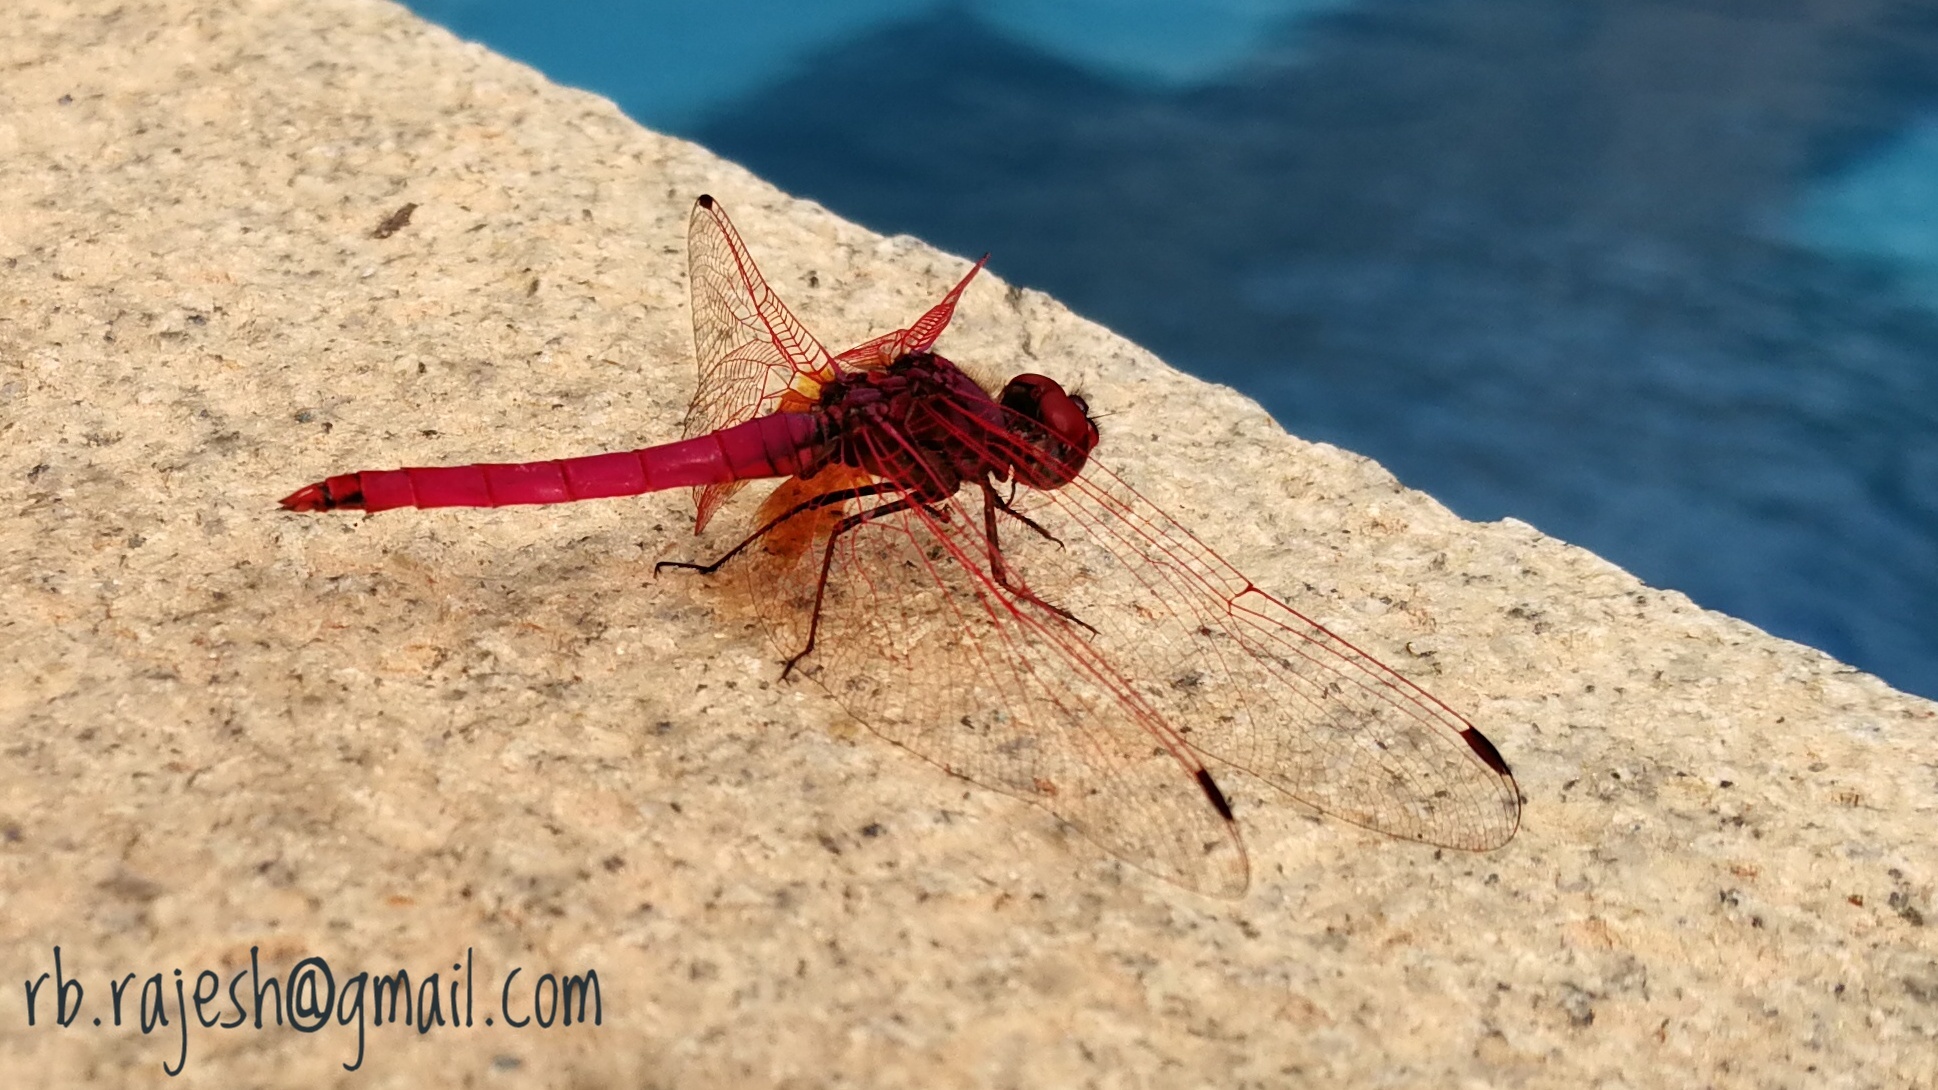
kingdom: Animalia
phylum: Arthropoda
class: Insecta
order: Odonata
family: Libellulidae
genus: Trithemis
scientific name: Trithemis aurora
